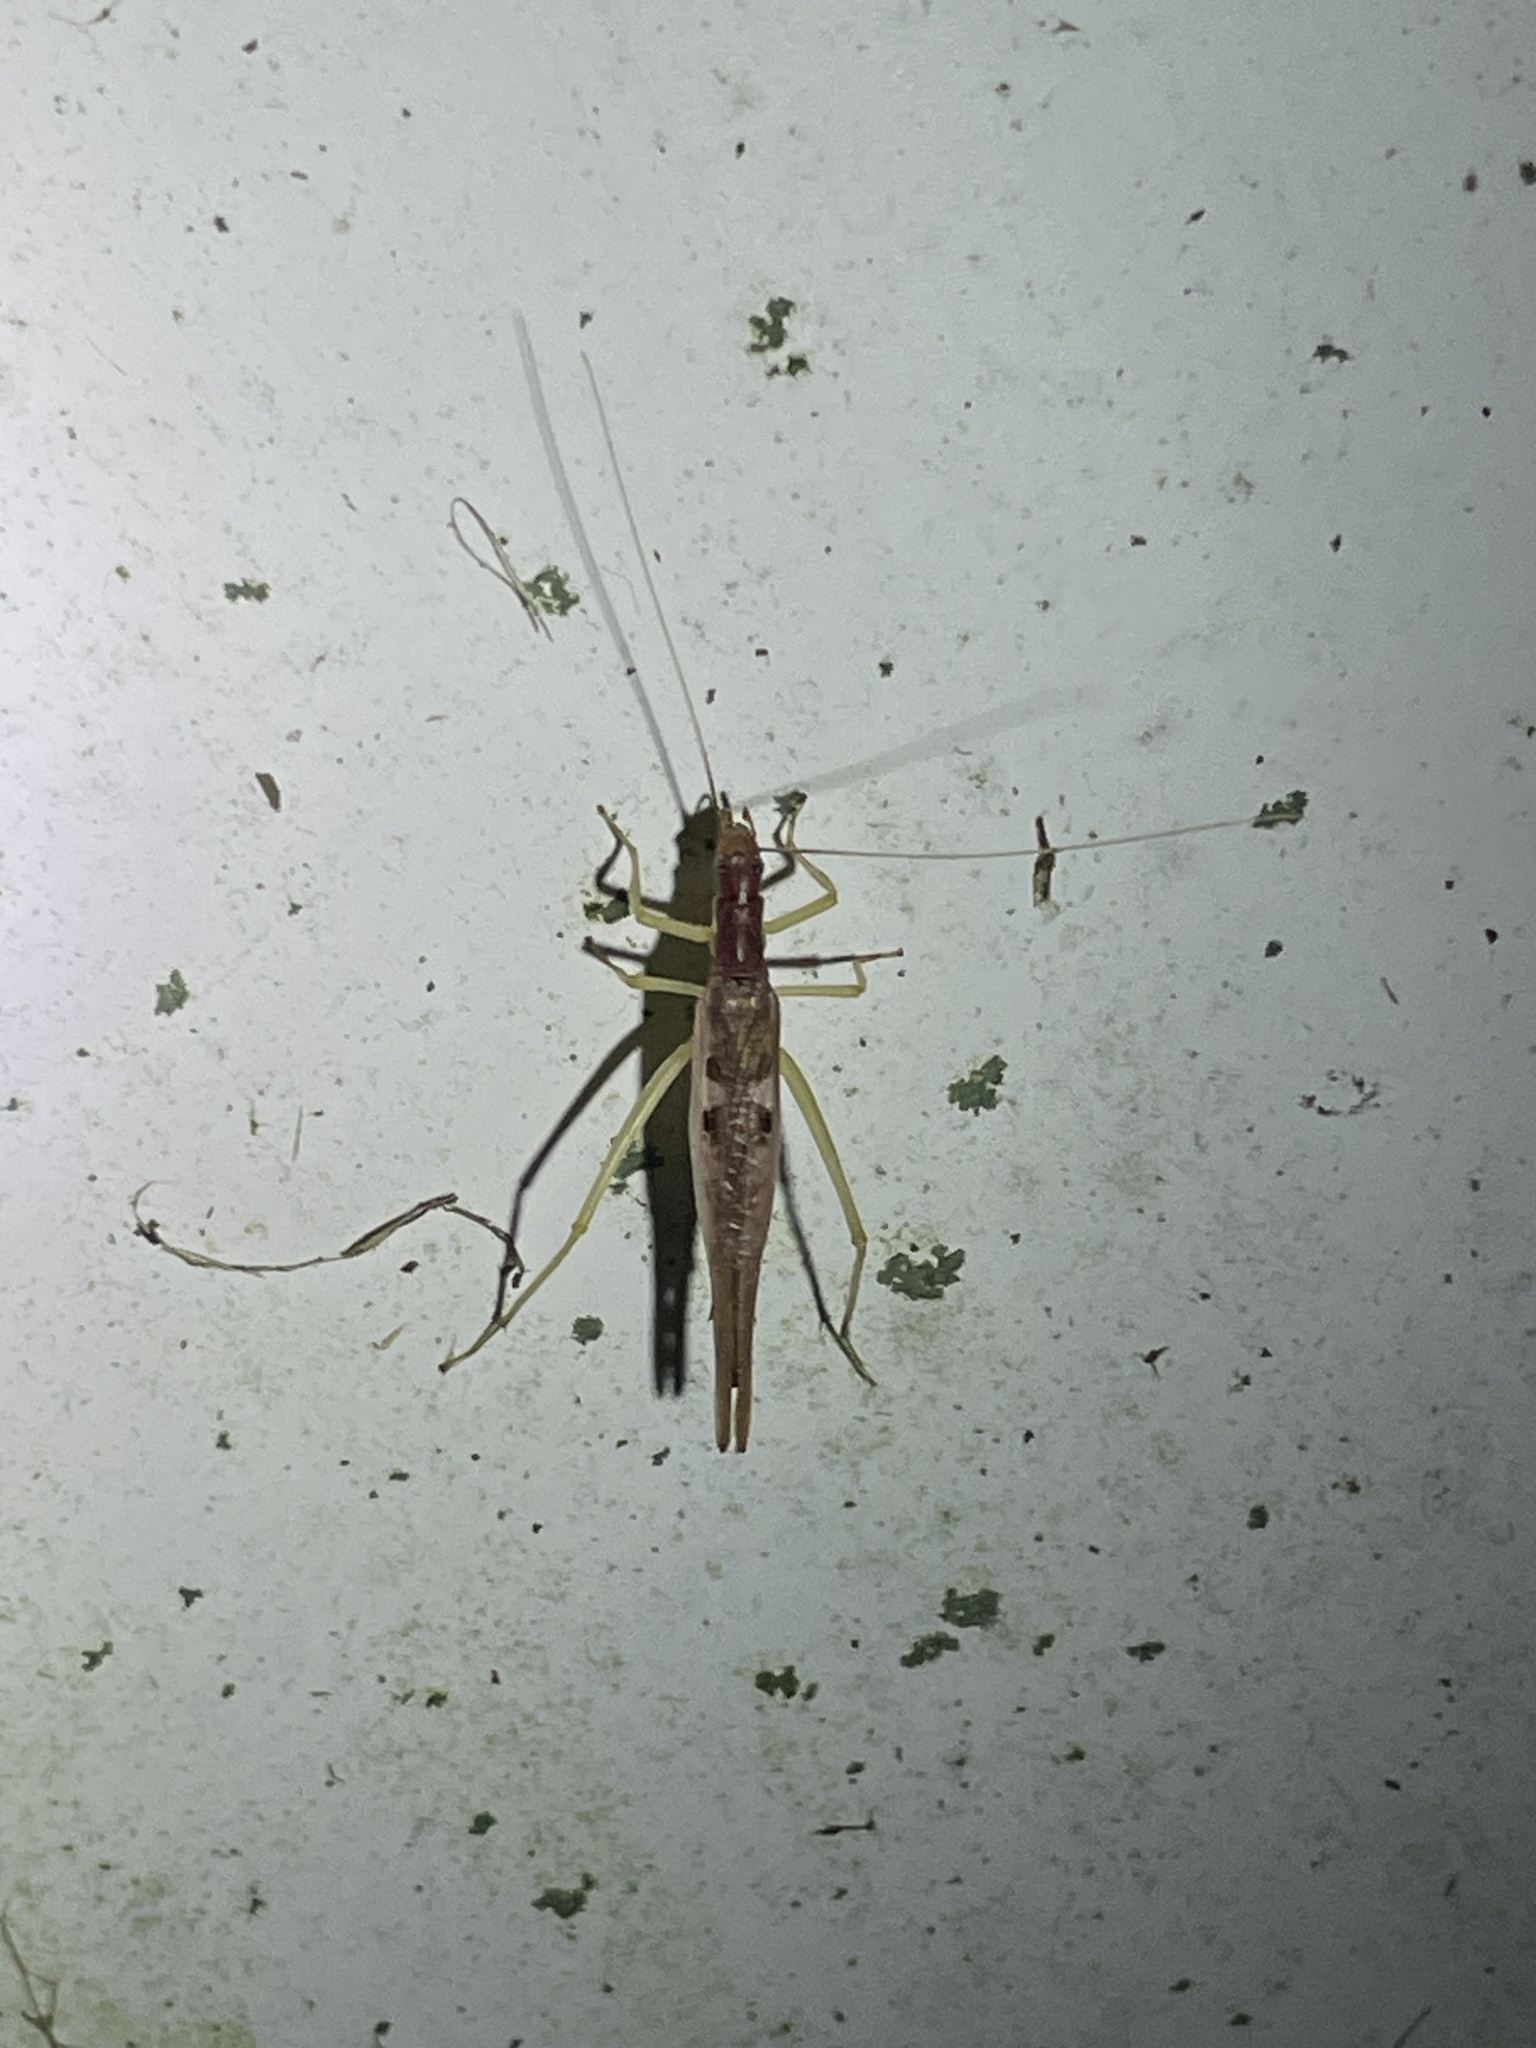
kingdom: Animalia
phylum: Arthropoda
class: Insecta
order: Orthoptera
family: Gryllidae
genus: Neoxabea
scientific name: Neoxabea bipunctata
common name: Two-spotted tree cricket
